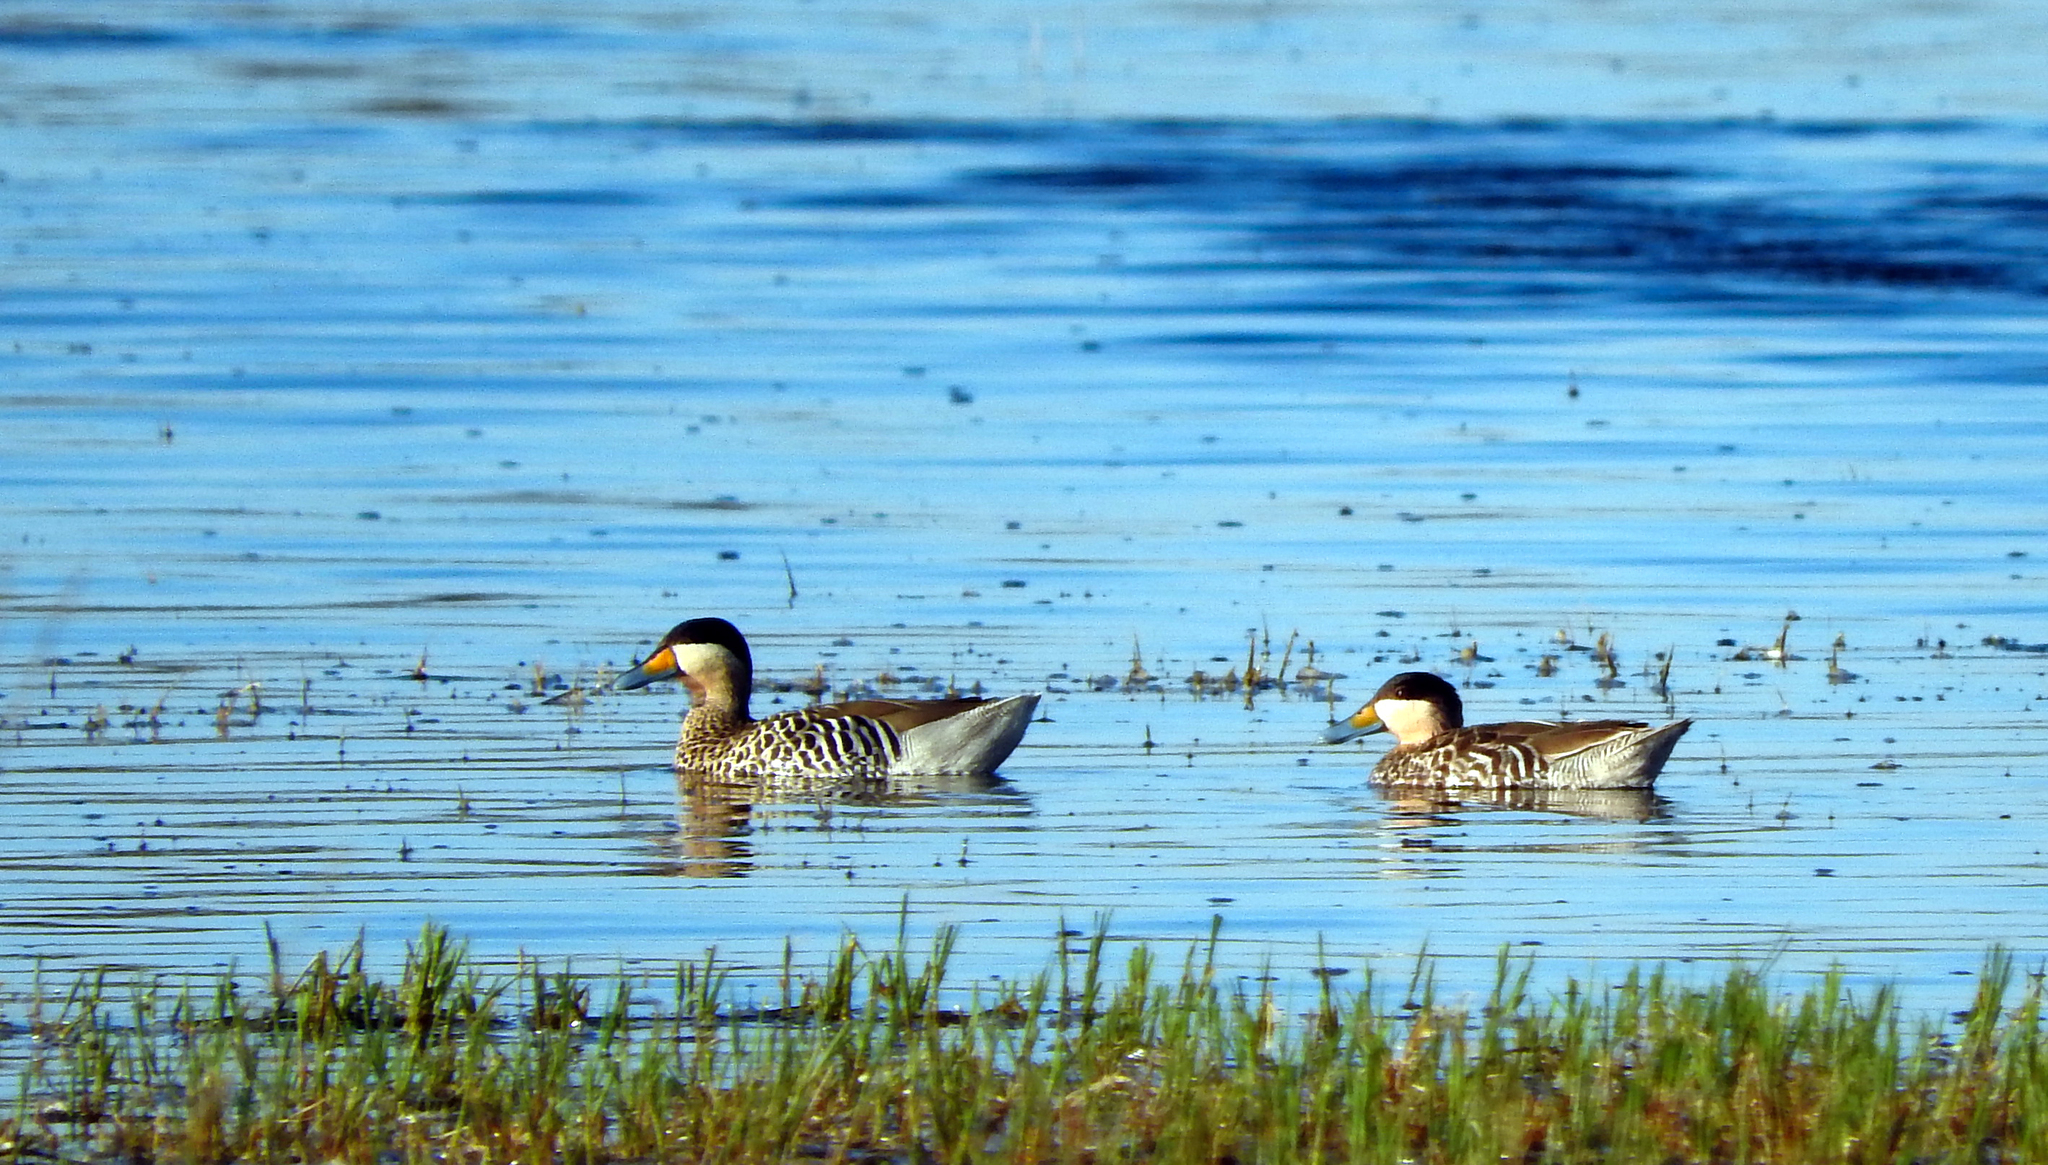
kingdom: Animalia
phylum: Chordata
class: Aves
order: Anseriformes
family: Anatidae
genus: Spatula
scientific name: Spatula versicolor
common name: Silver teal
